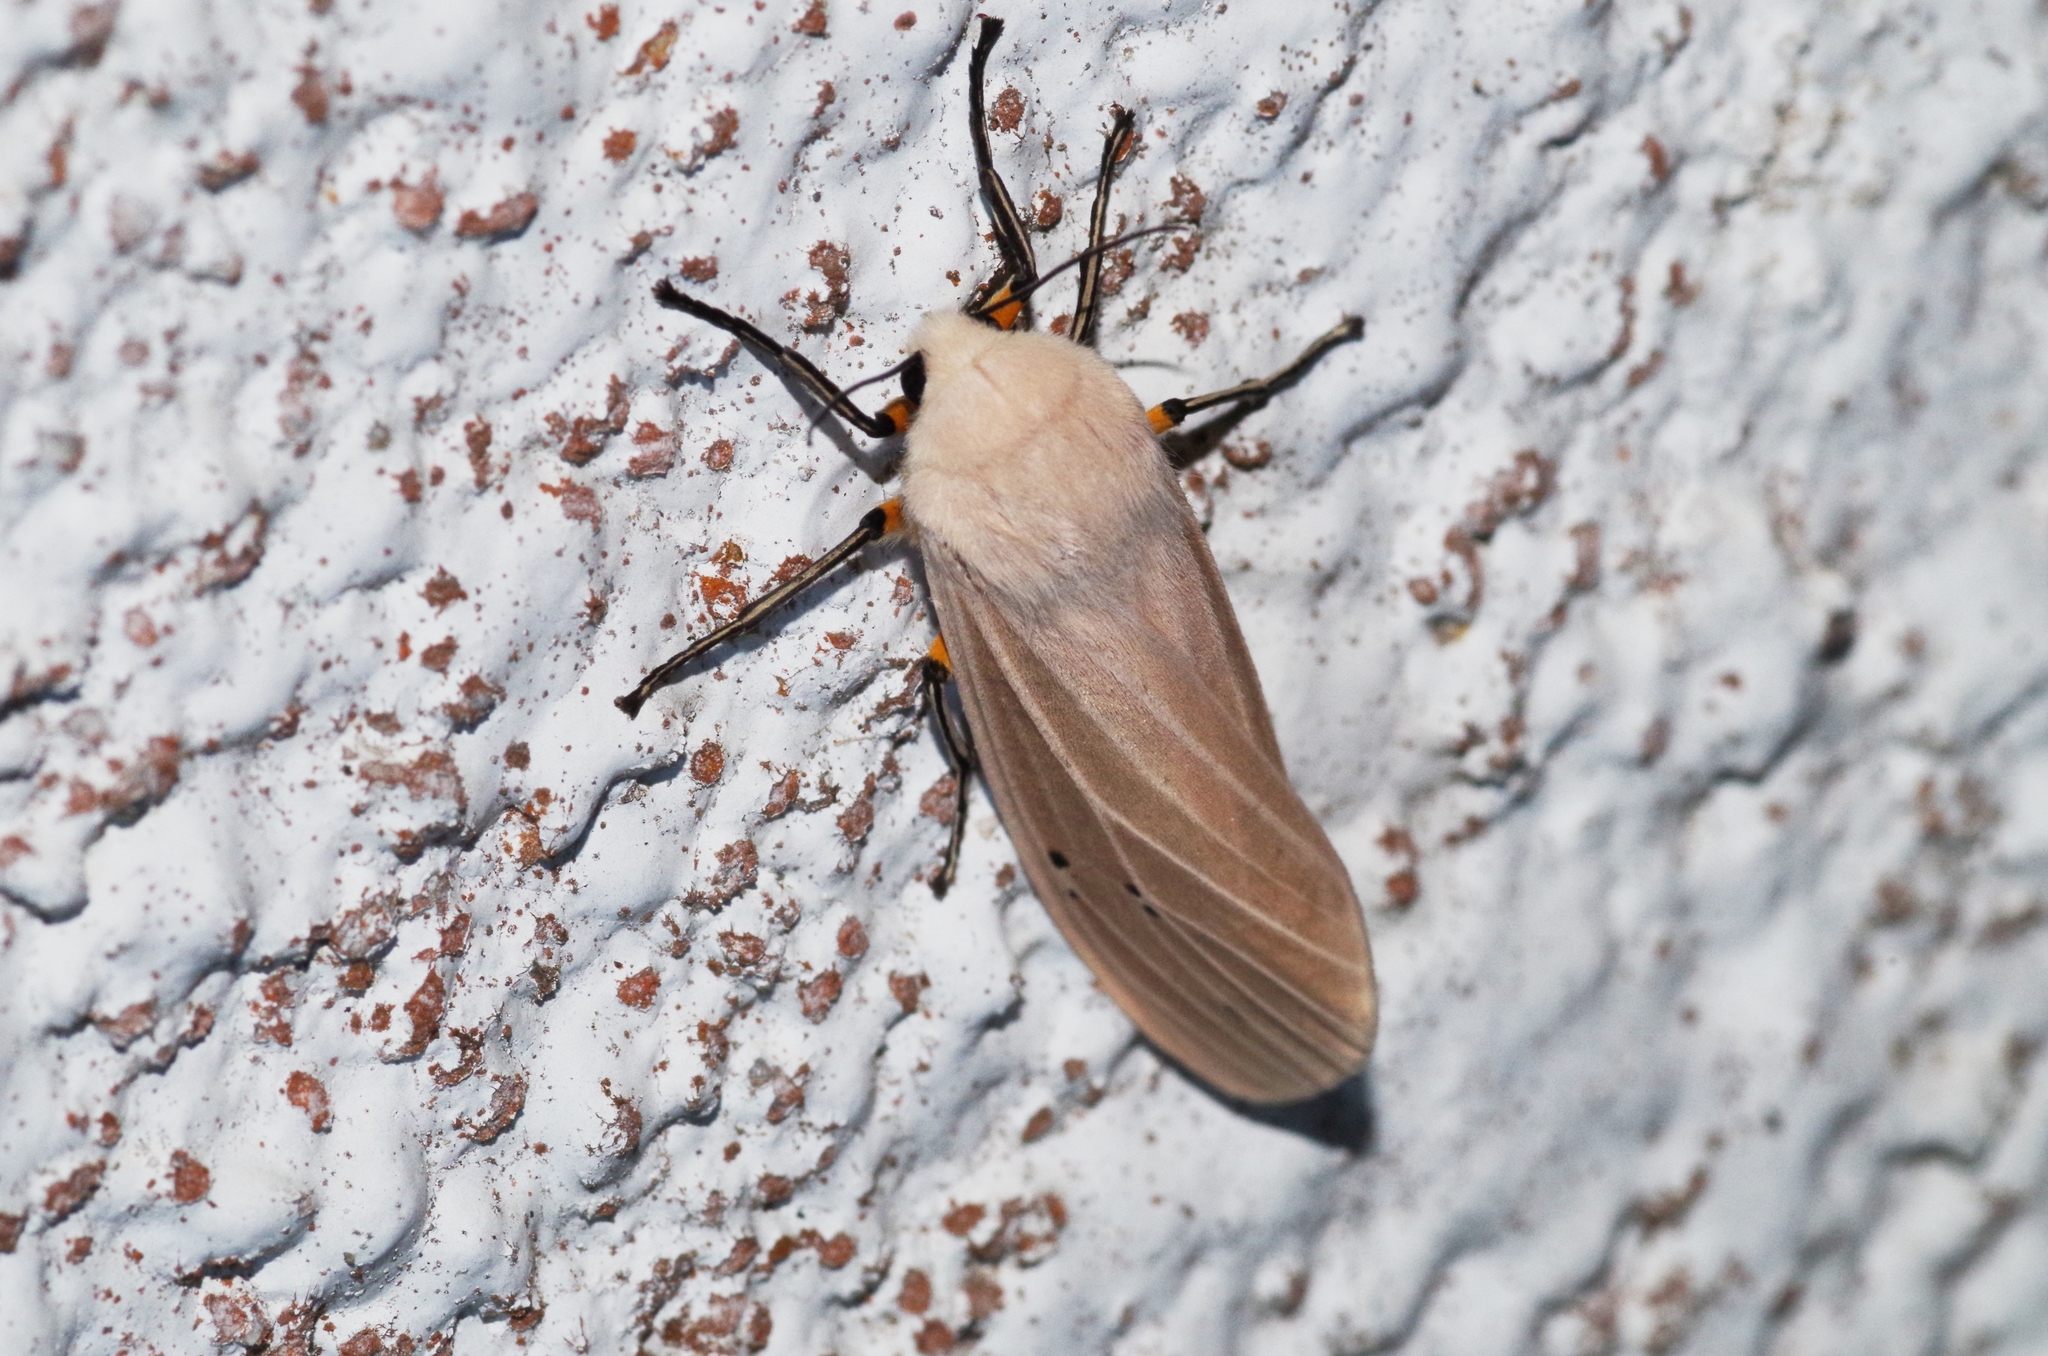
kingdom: Animalia
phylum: Arthropoda
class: Insecta
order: Lepidoptera
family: Erebidae
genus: Creatonotos
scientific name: Creatonotos transiens
